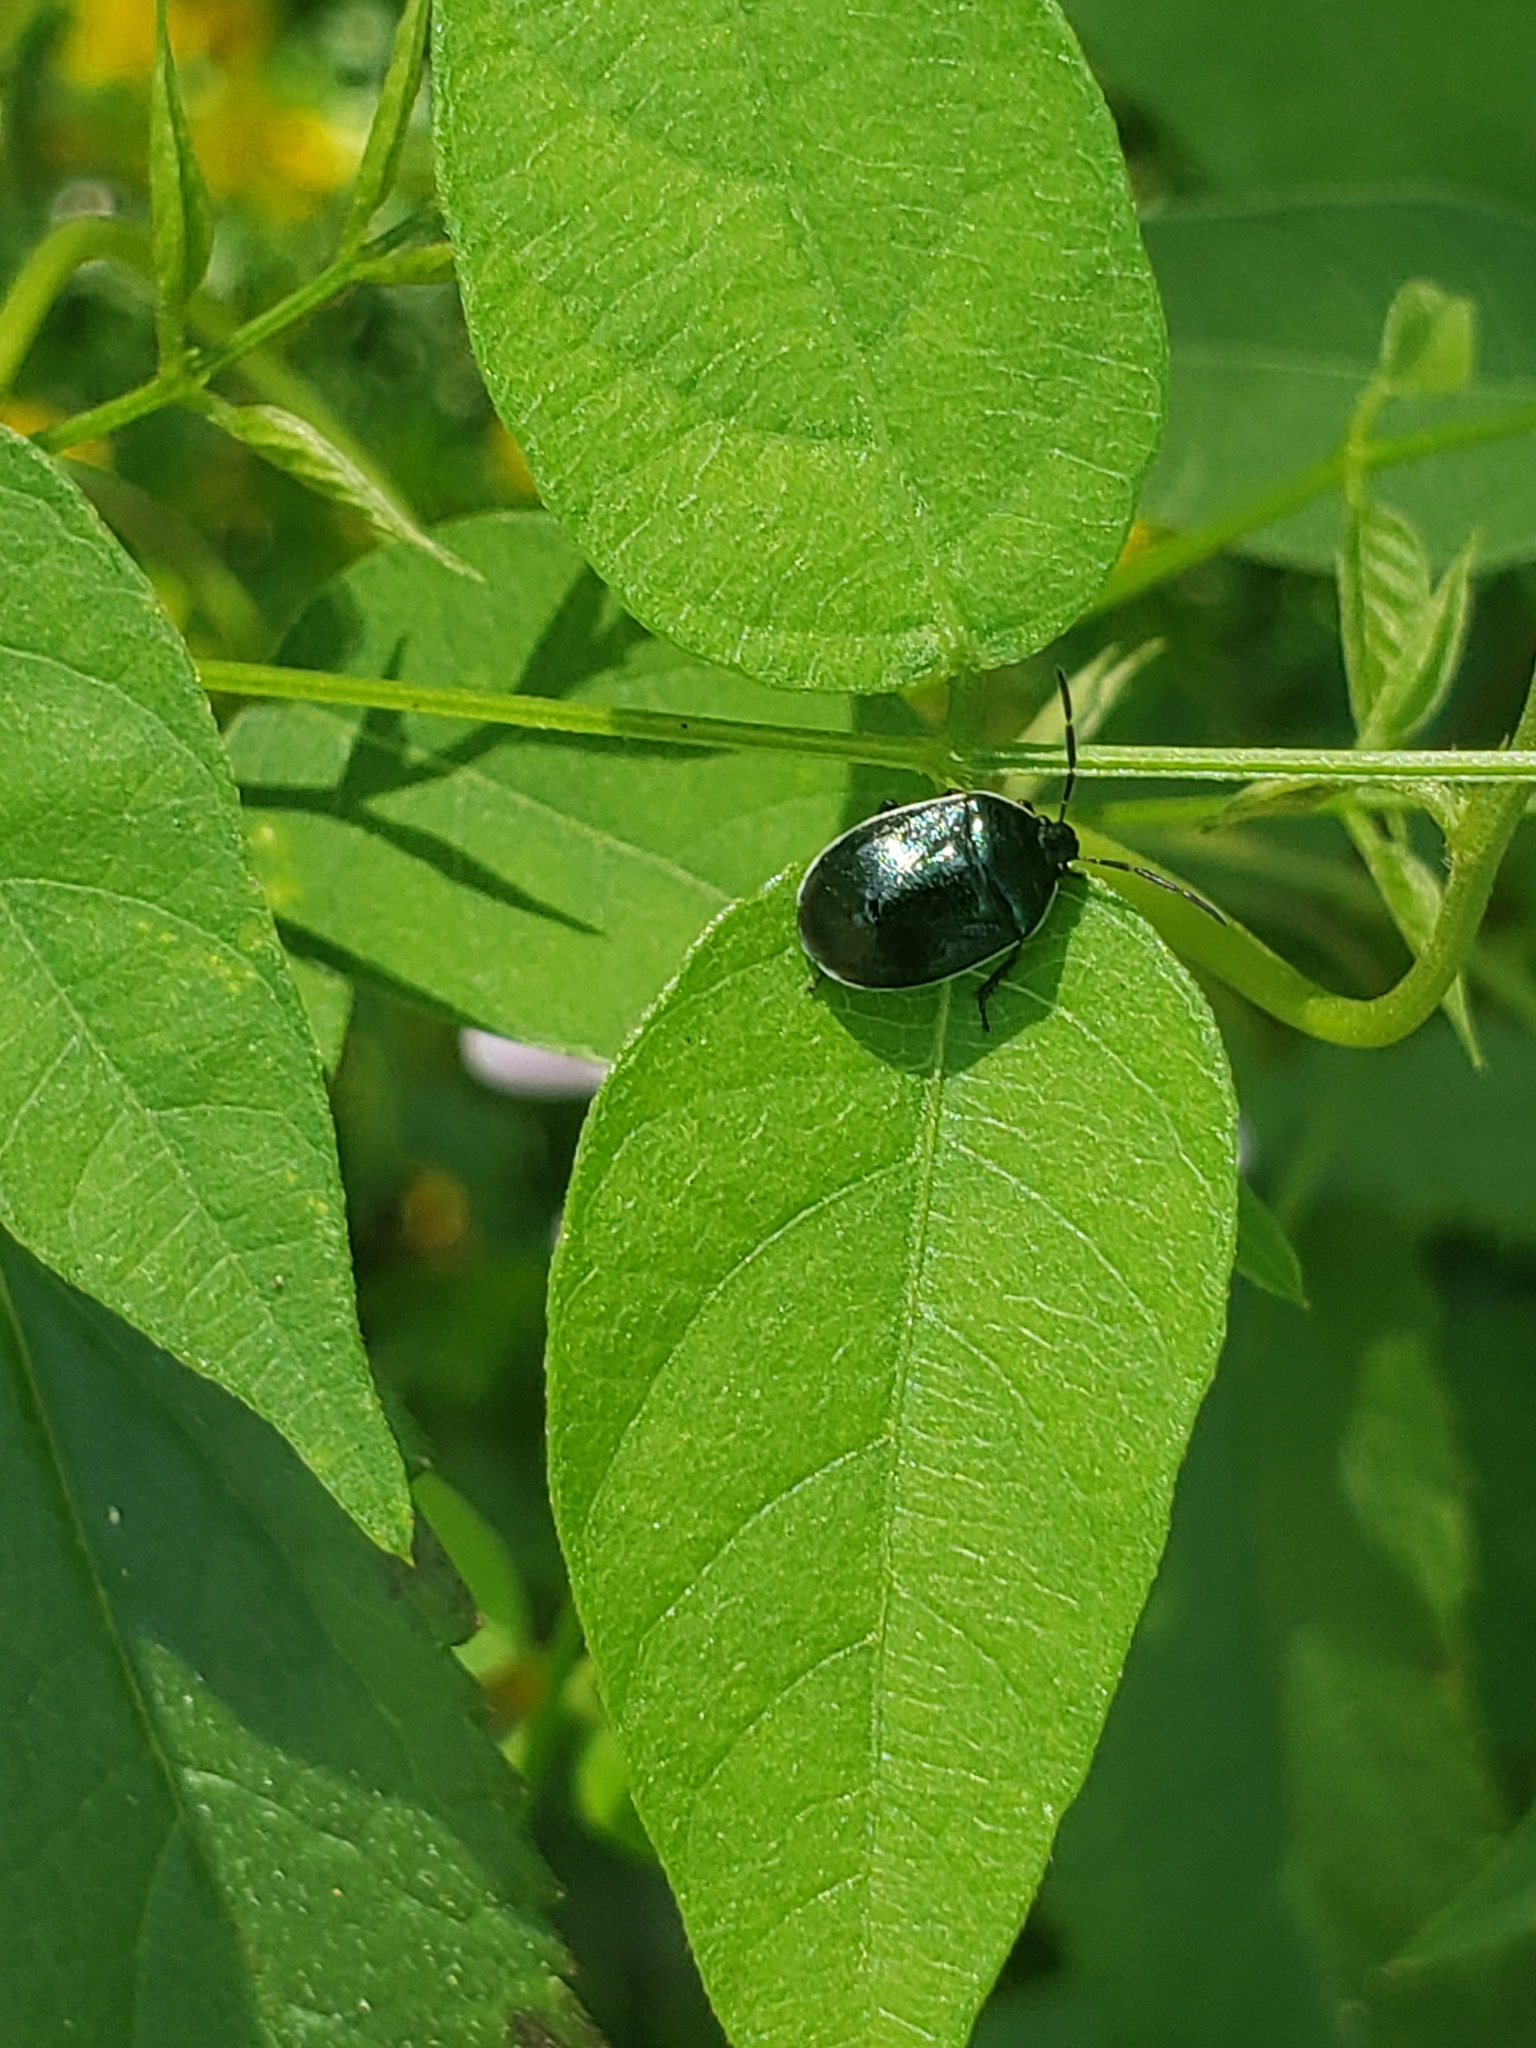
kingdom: Animalia
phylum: Arthropoda
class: Insecta
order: Hemiptera
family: Cydnidae
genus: Sehirus
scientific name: Sehirus cinctus
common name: White-margined burrower bug
